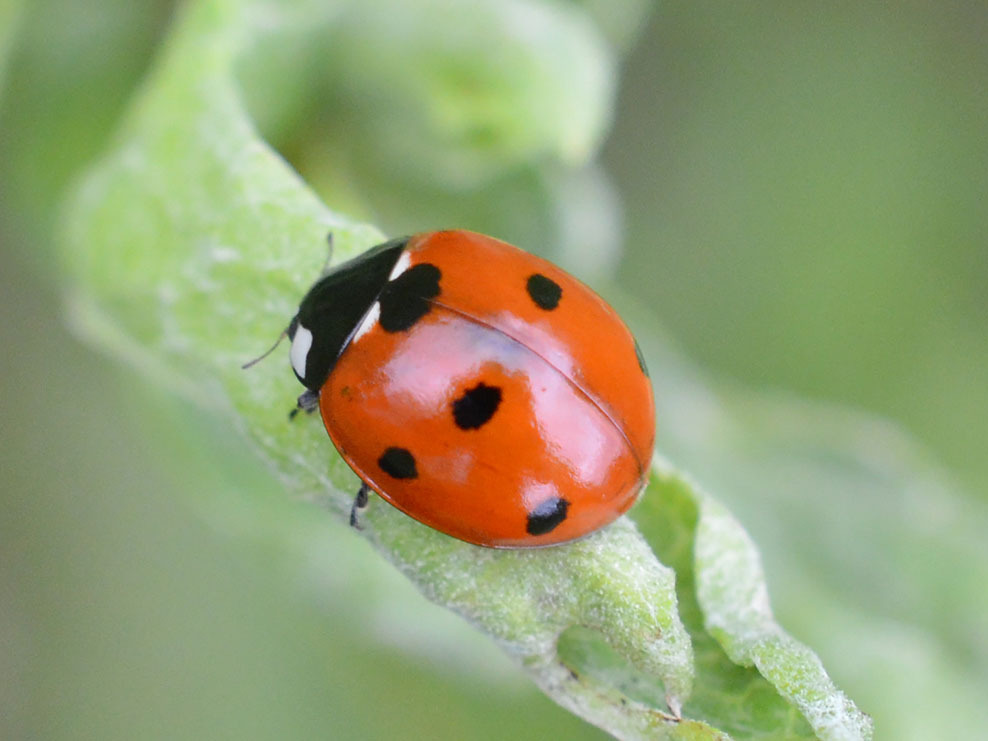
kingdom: Animalia
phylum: Arthropoda
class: Insecta
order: Coleoptera
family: Coccinellidae
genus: Coccinella
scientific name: Coccinella septempunctata
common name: Sevenspotted lady beetle
